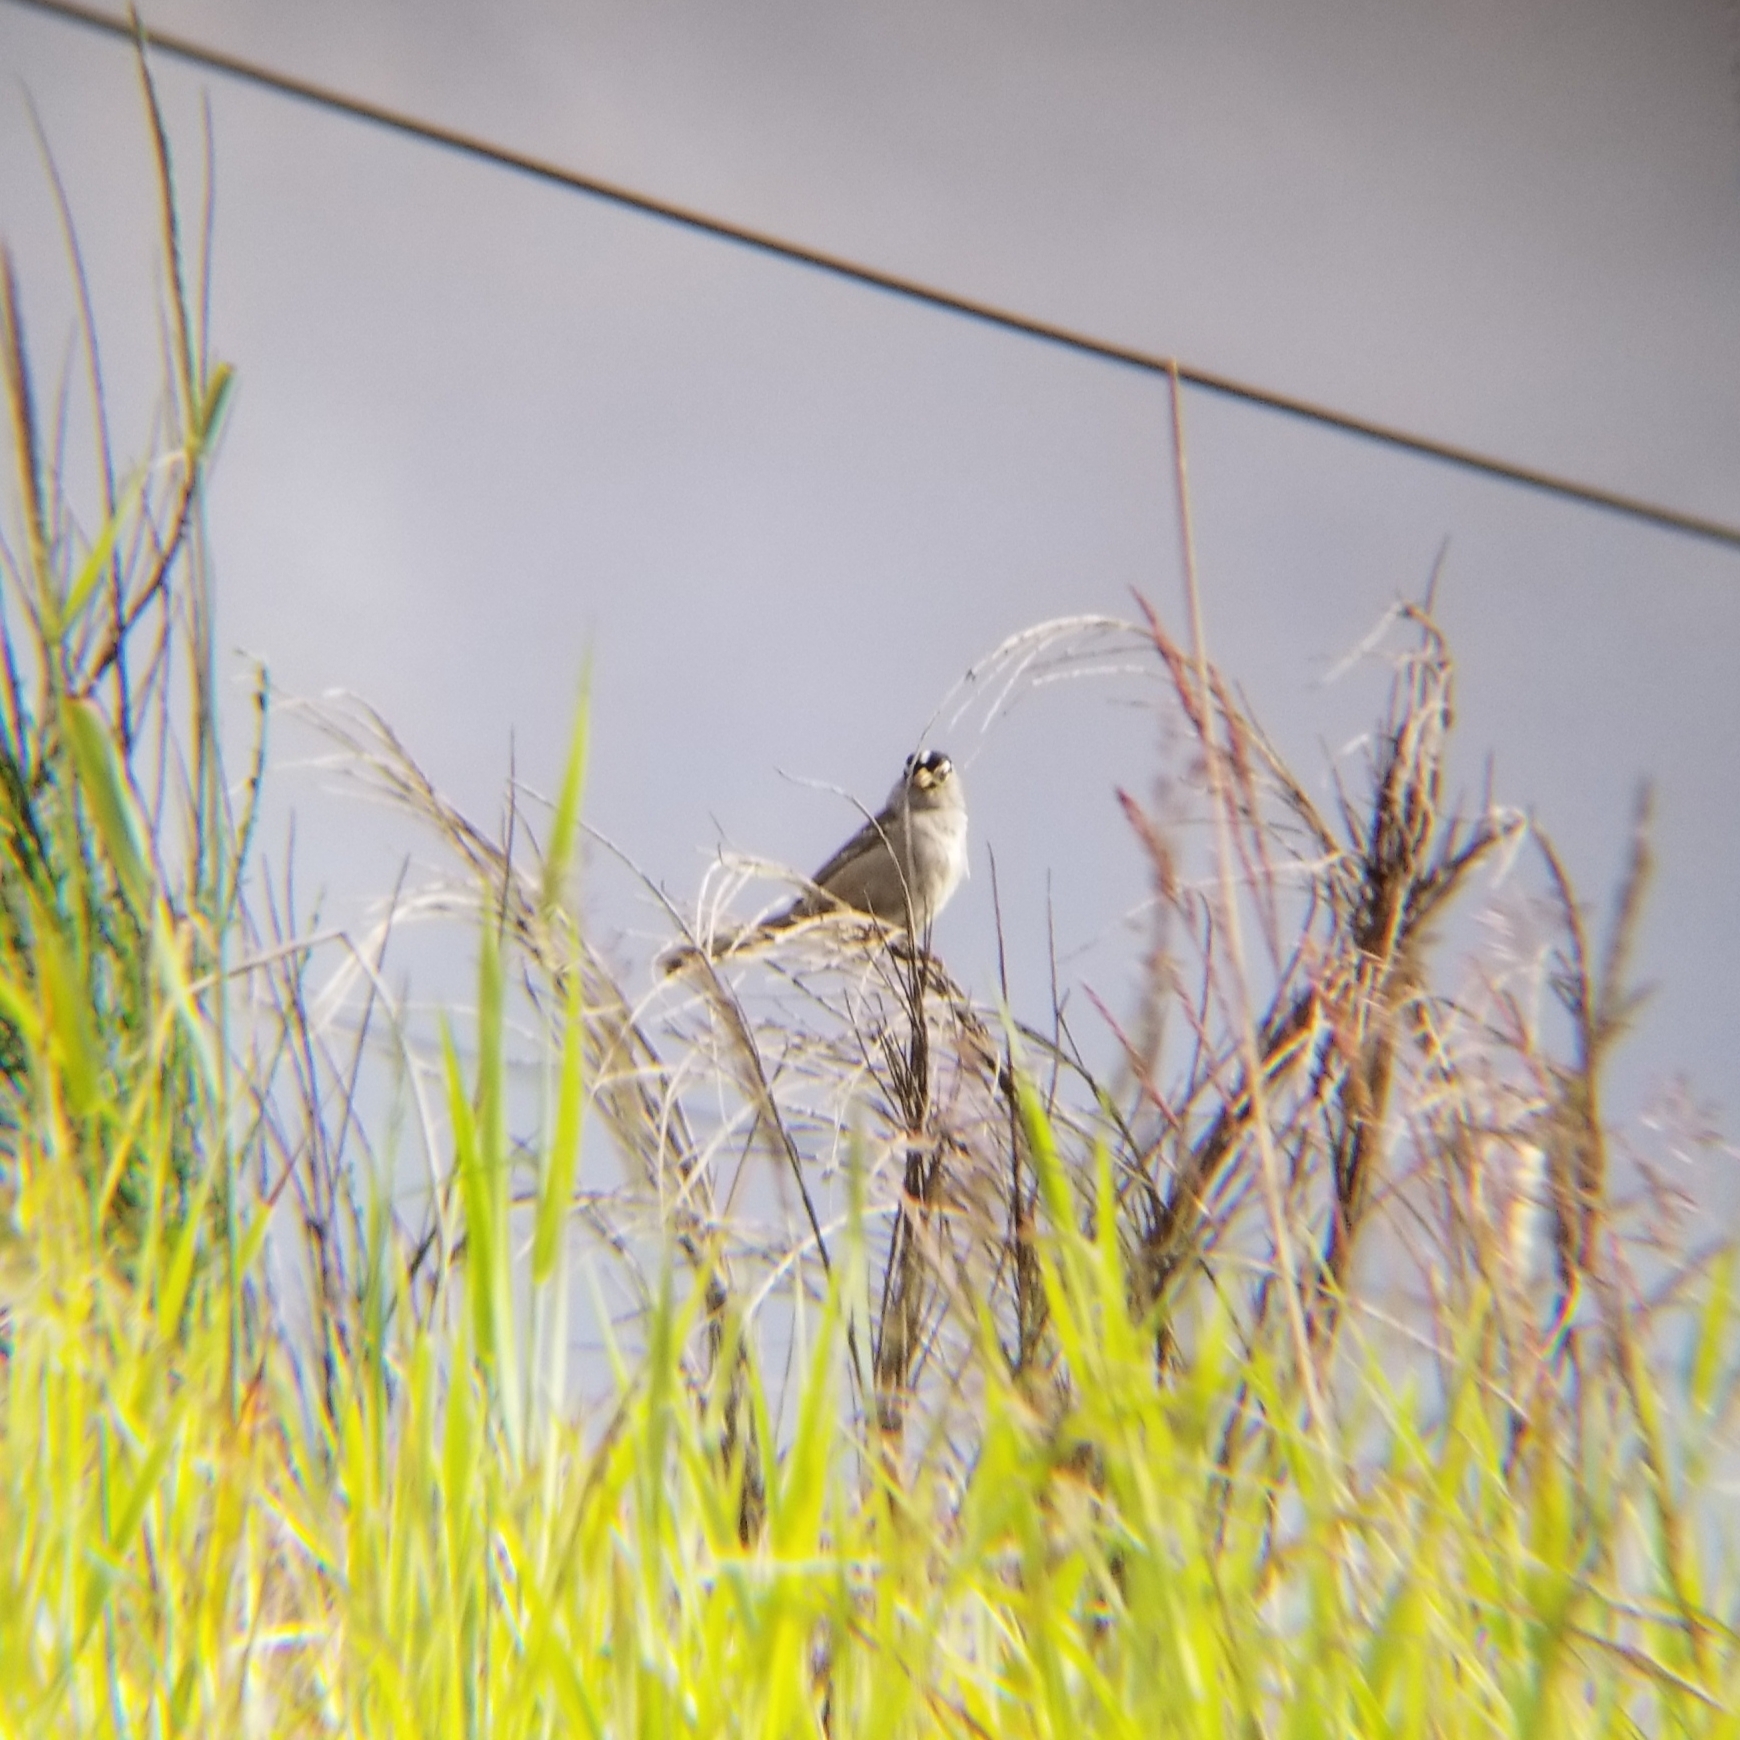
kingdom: Animalia
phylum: Chordata
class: Aves
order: Passeriformes
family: Passerellidae
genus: Zonotrichia
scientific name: Zonotrichia leucophrys
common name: White-crowned sparrow
